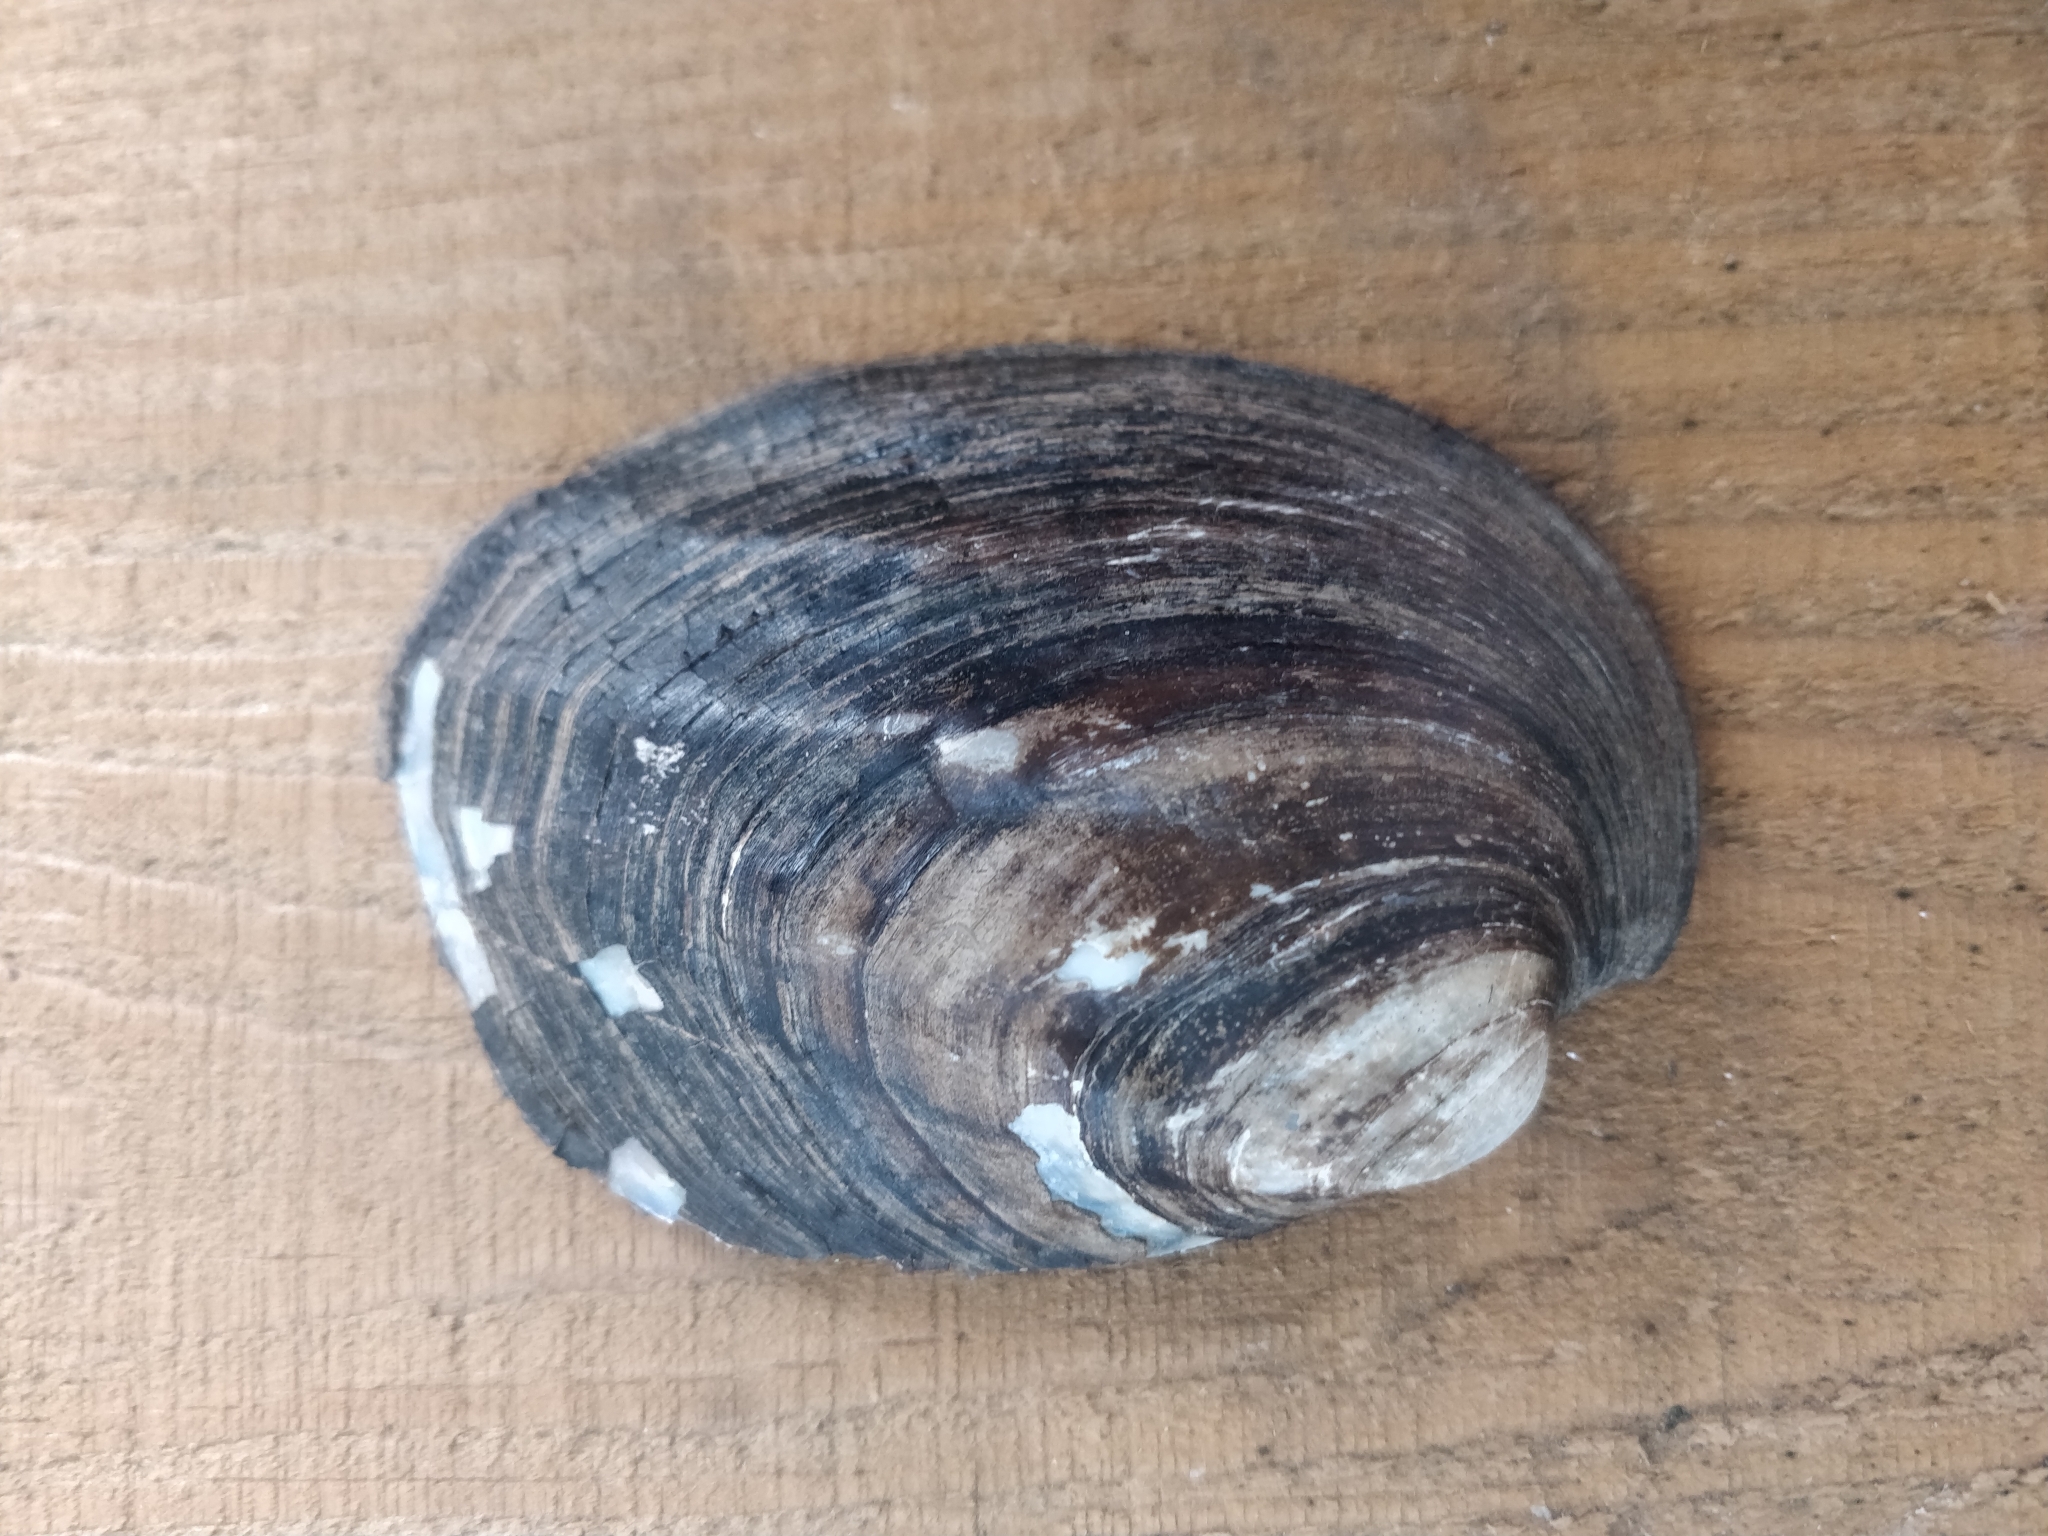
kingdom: Animalia
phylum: Mollusca
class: Bivalvia
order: Unionida
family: Unionidae
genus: Amblema
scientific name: Amblema plicata
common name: Threeridge
